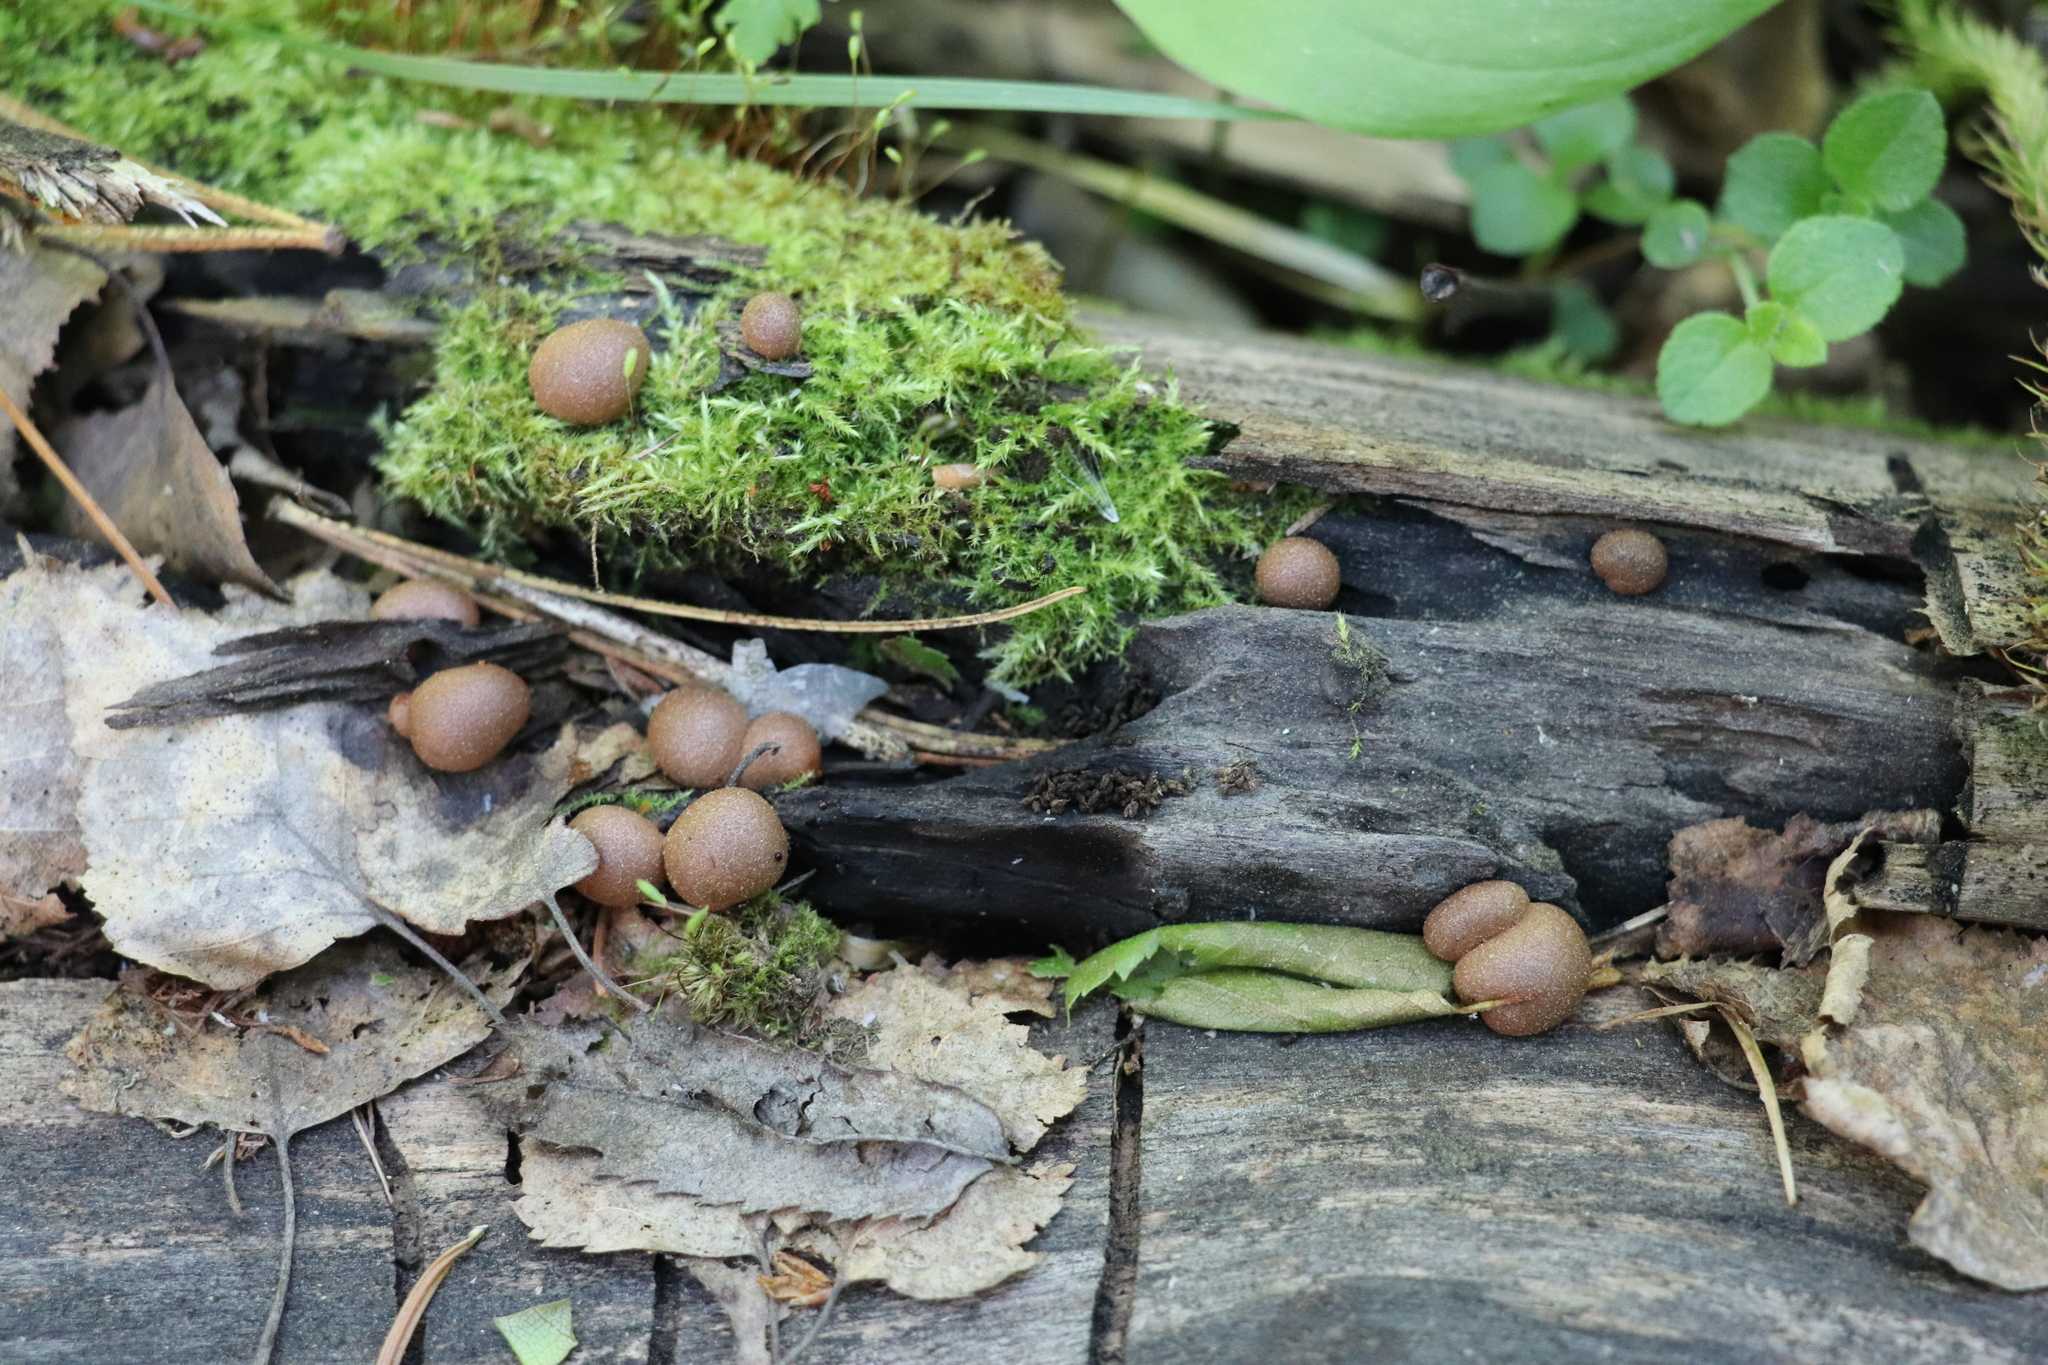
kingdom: Protozoa
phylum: Mycetozoa
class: Myxomycetes
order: Cribrariales
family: Tubiferaceae
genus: Lycogala
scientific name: Lycogala epidendrum
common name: Wolf's milk
